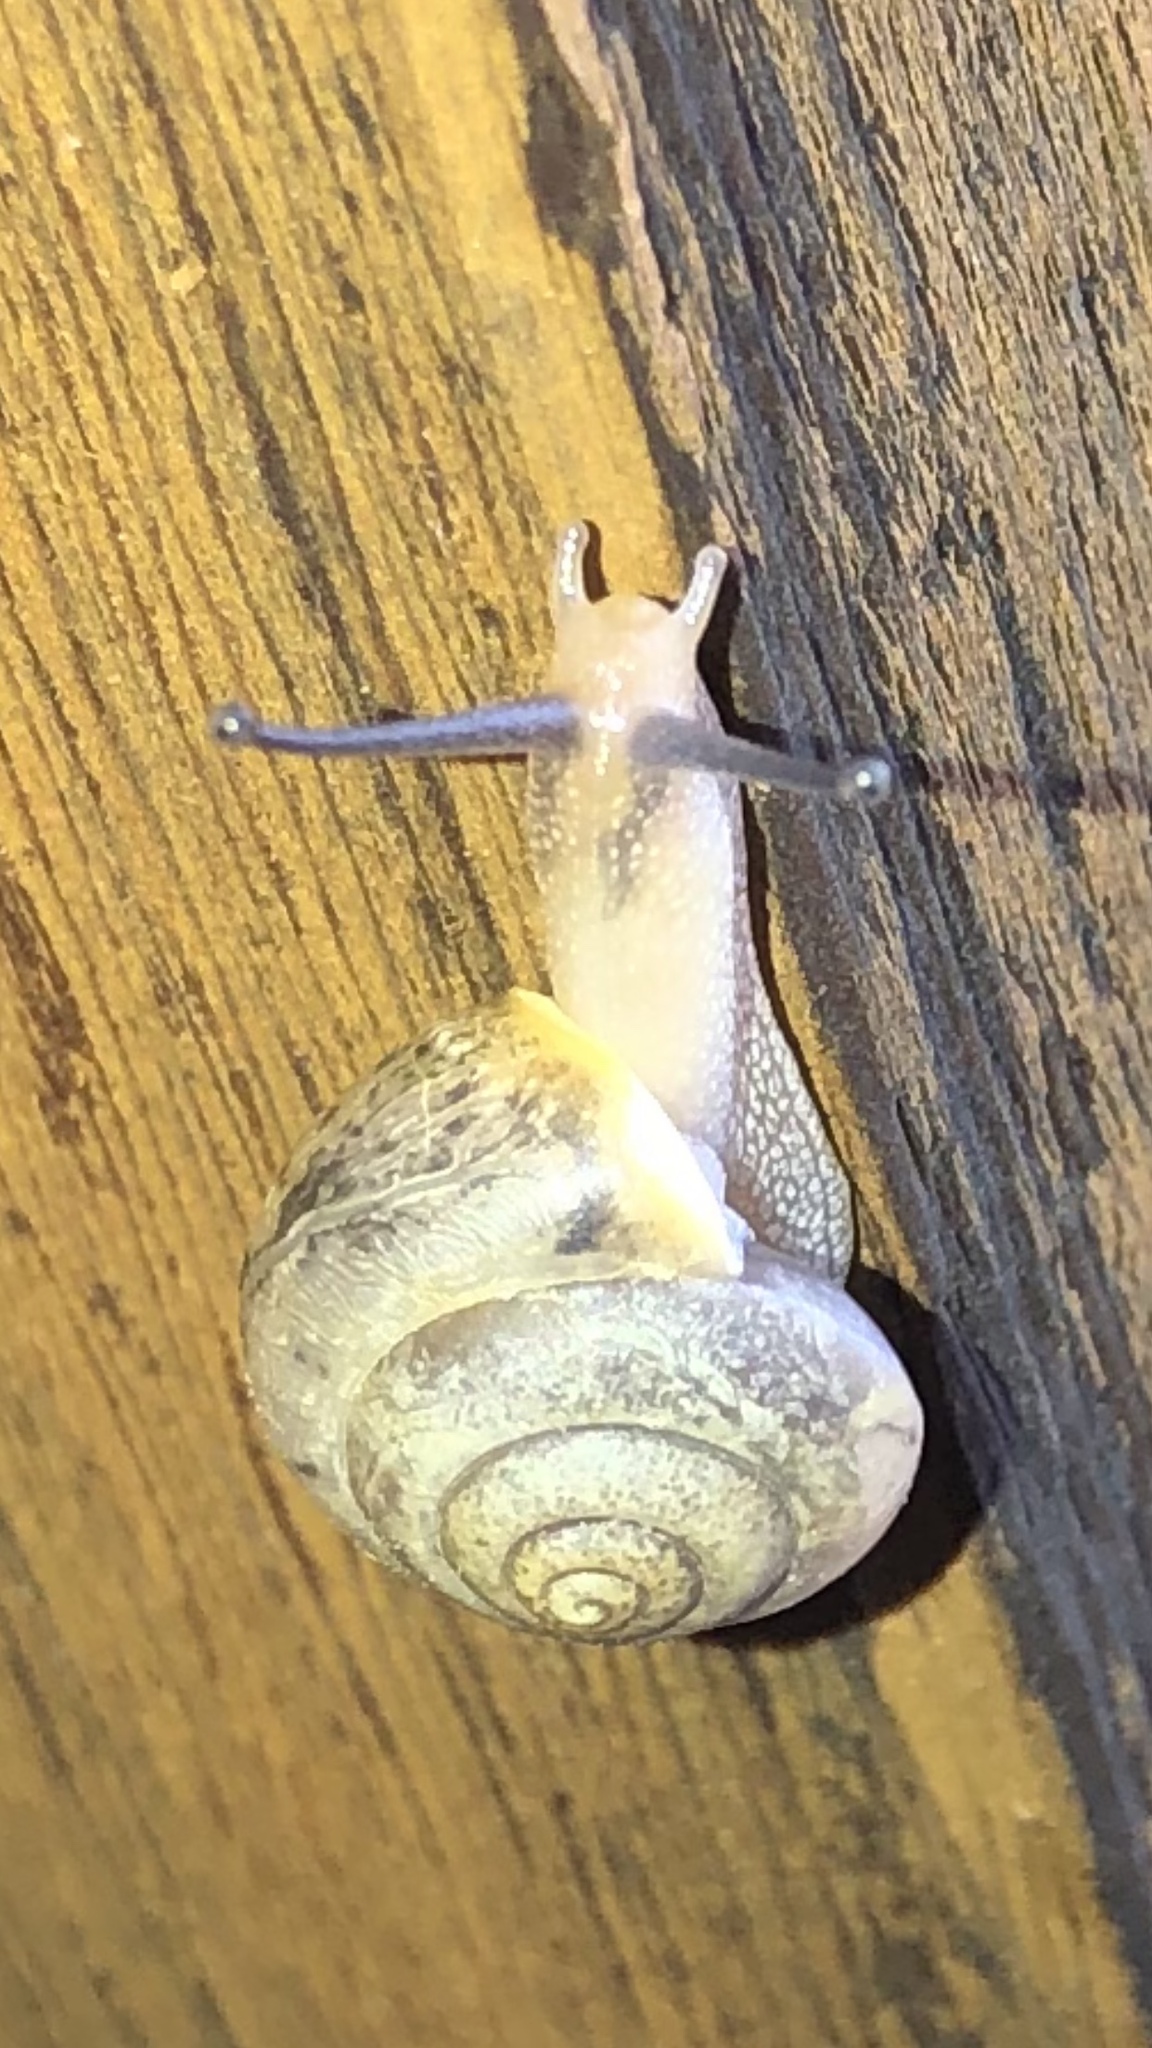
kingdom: Animalia
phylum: Mollusca
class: Gastropoda
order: Stylommatophora
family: Camaenidae
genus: Bradybaena
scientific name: Bradybaena similaris
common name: Asian trampsnail
